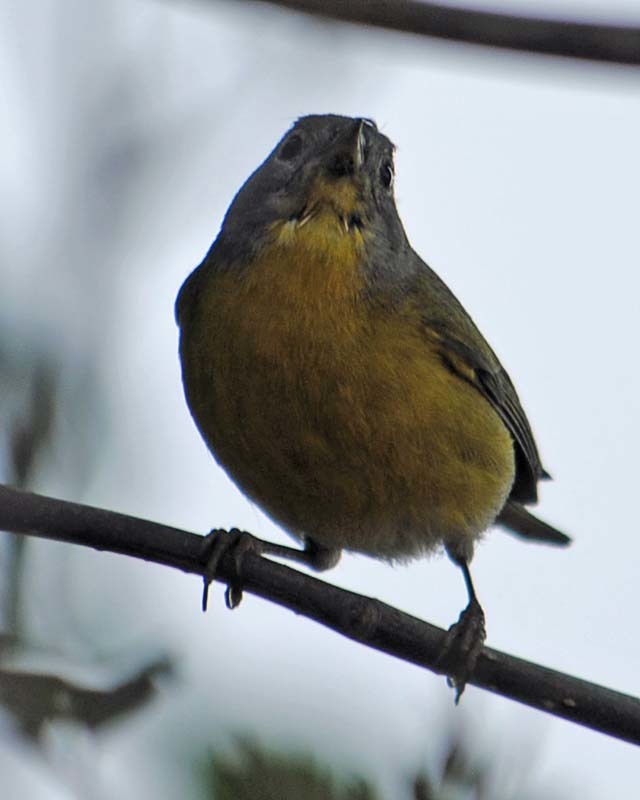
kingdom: Animalia
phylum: Chordata
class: Aves
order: Passeriformes
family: Parulidae
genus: Leiothlypis
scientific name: Leiothlypis ruficapilla
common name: Nashville warbler
